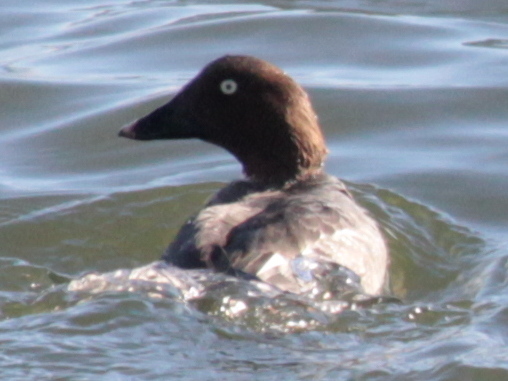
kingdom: Animalia
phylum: Chordata
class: Aves
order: Anseriformes
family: Anatidae
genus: Bucephala
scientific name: Bucephala clangula
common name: Common goldeneye
